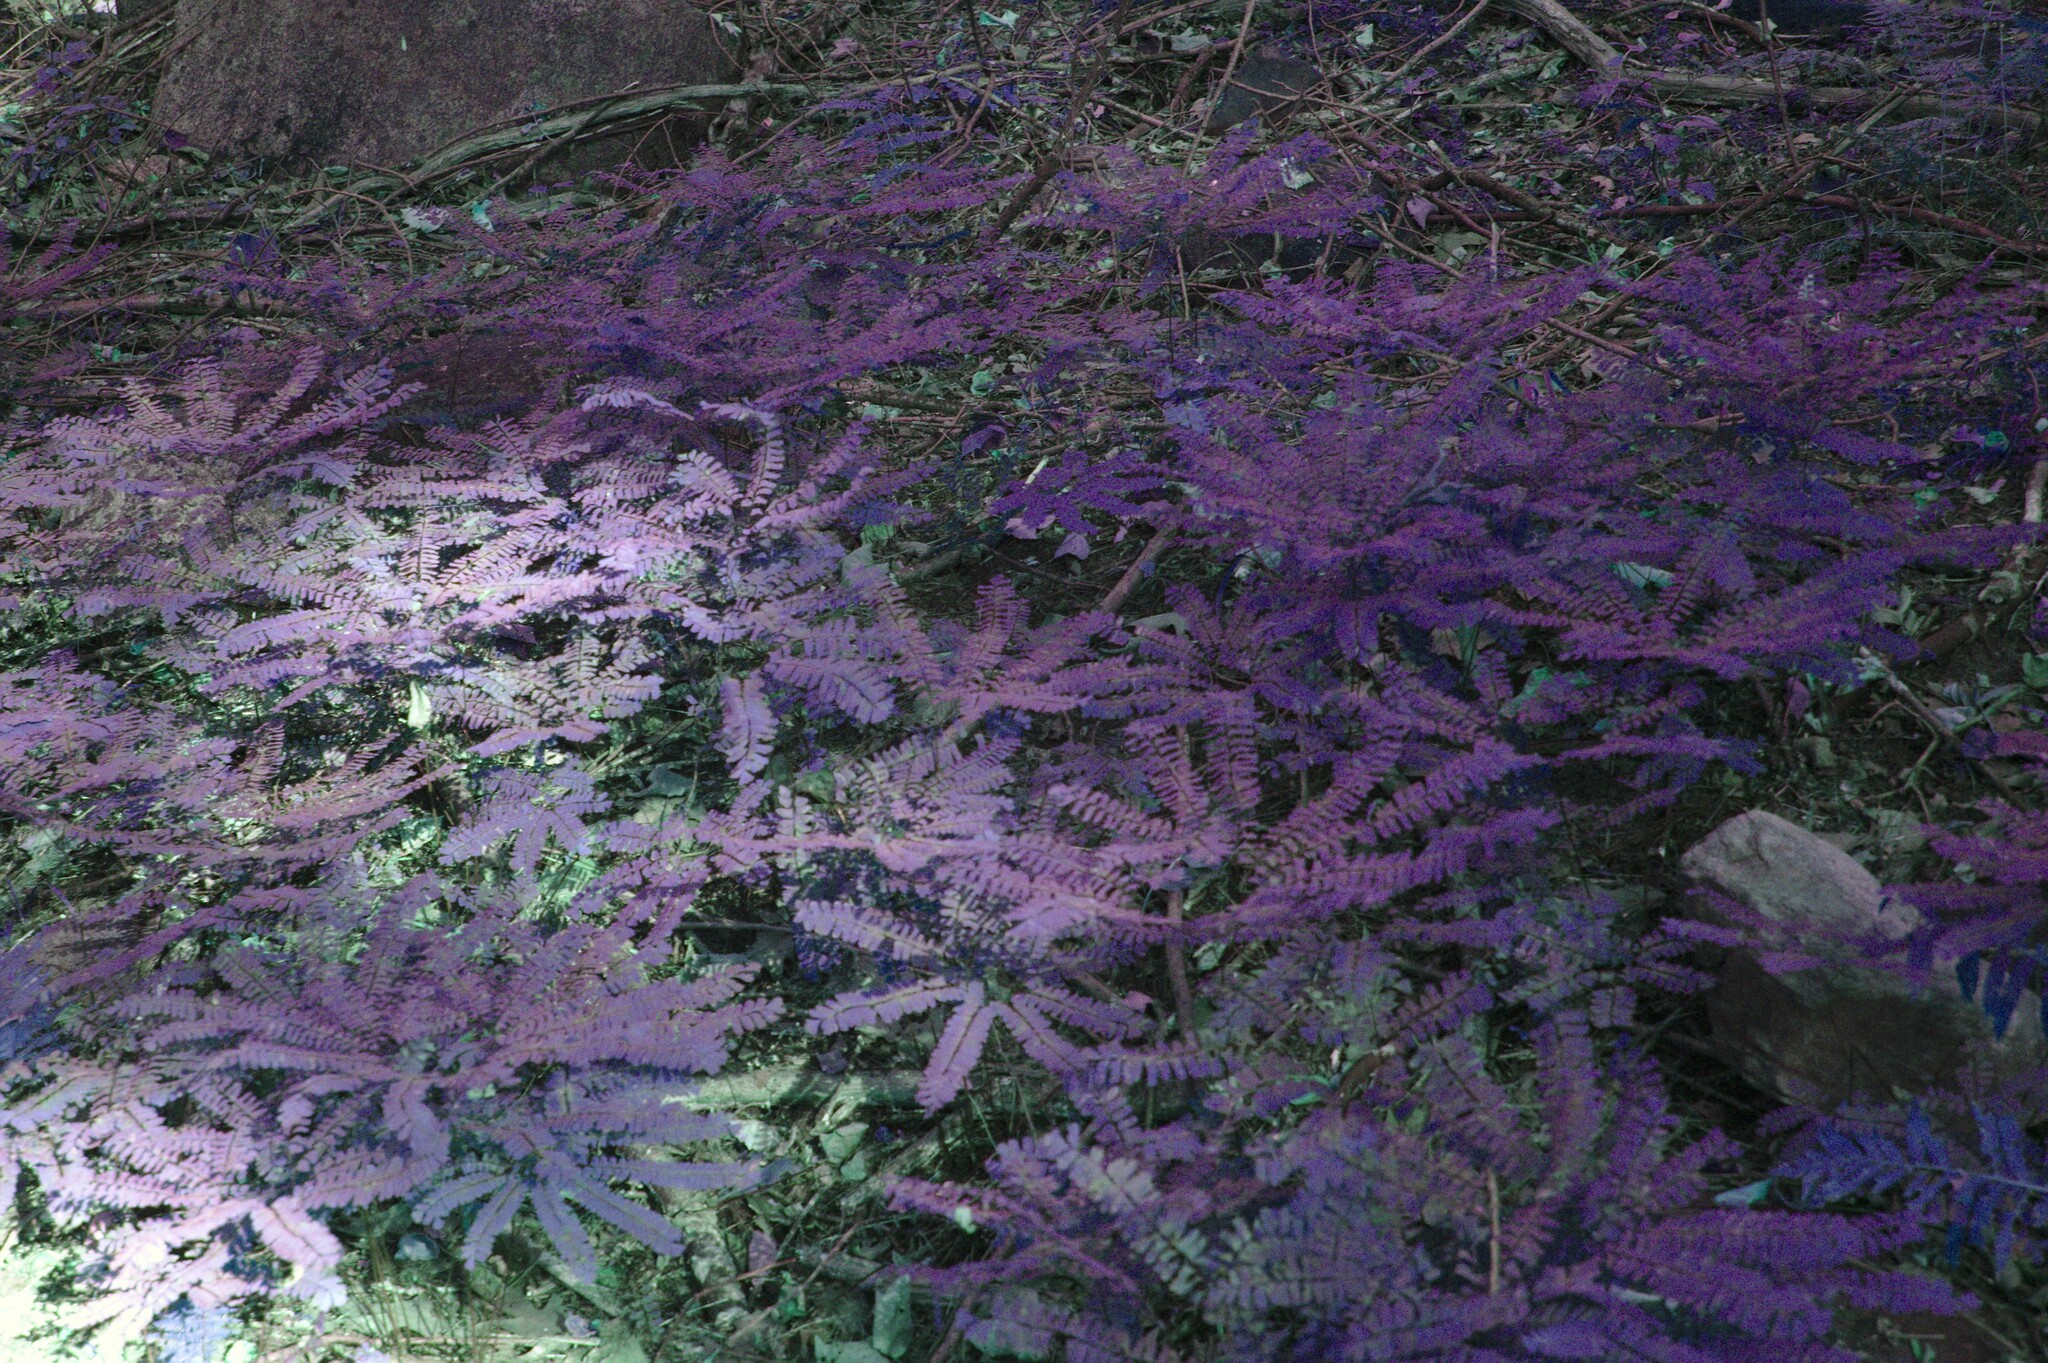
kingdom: Plantae
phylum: Tracheophyta
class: Polypodiopsida
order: Polypodiales
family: Pteridaceae
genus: Adiantum
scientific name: Adiantum pedatum
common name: Five-finger fern
